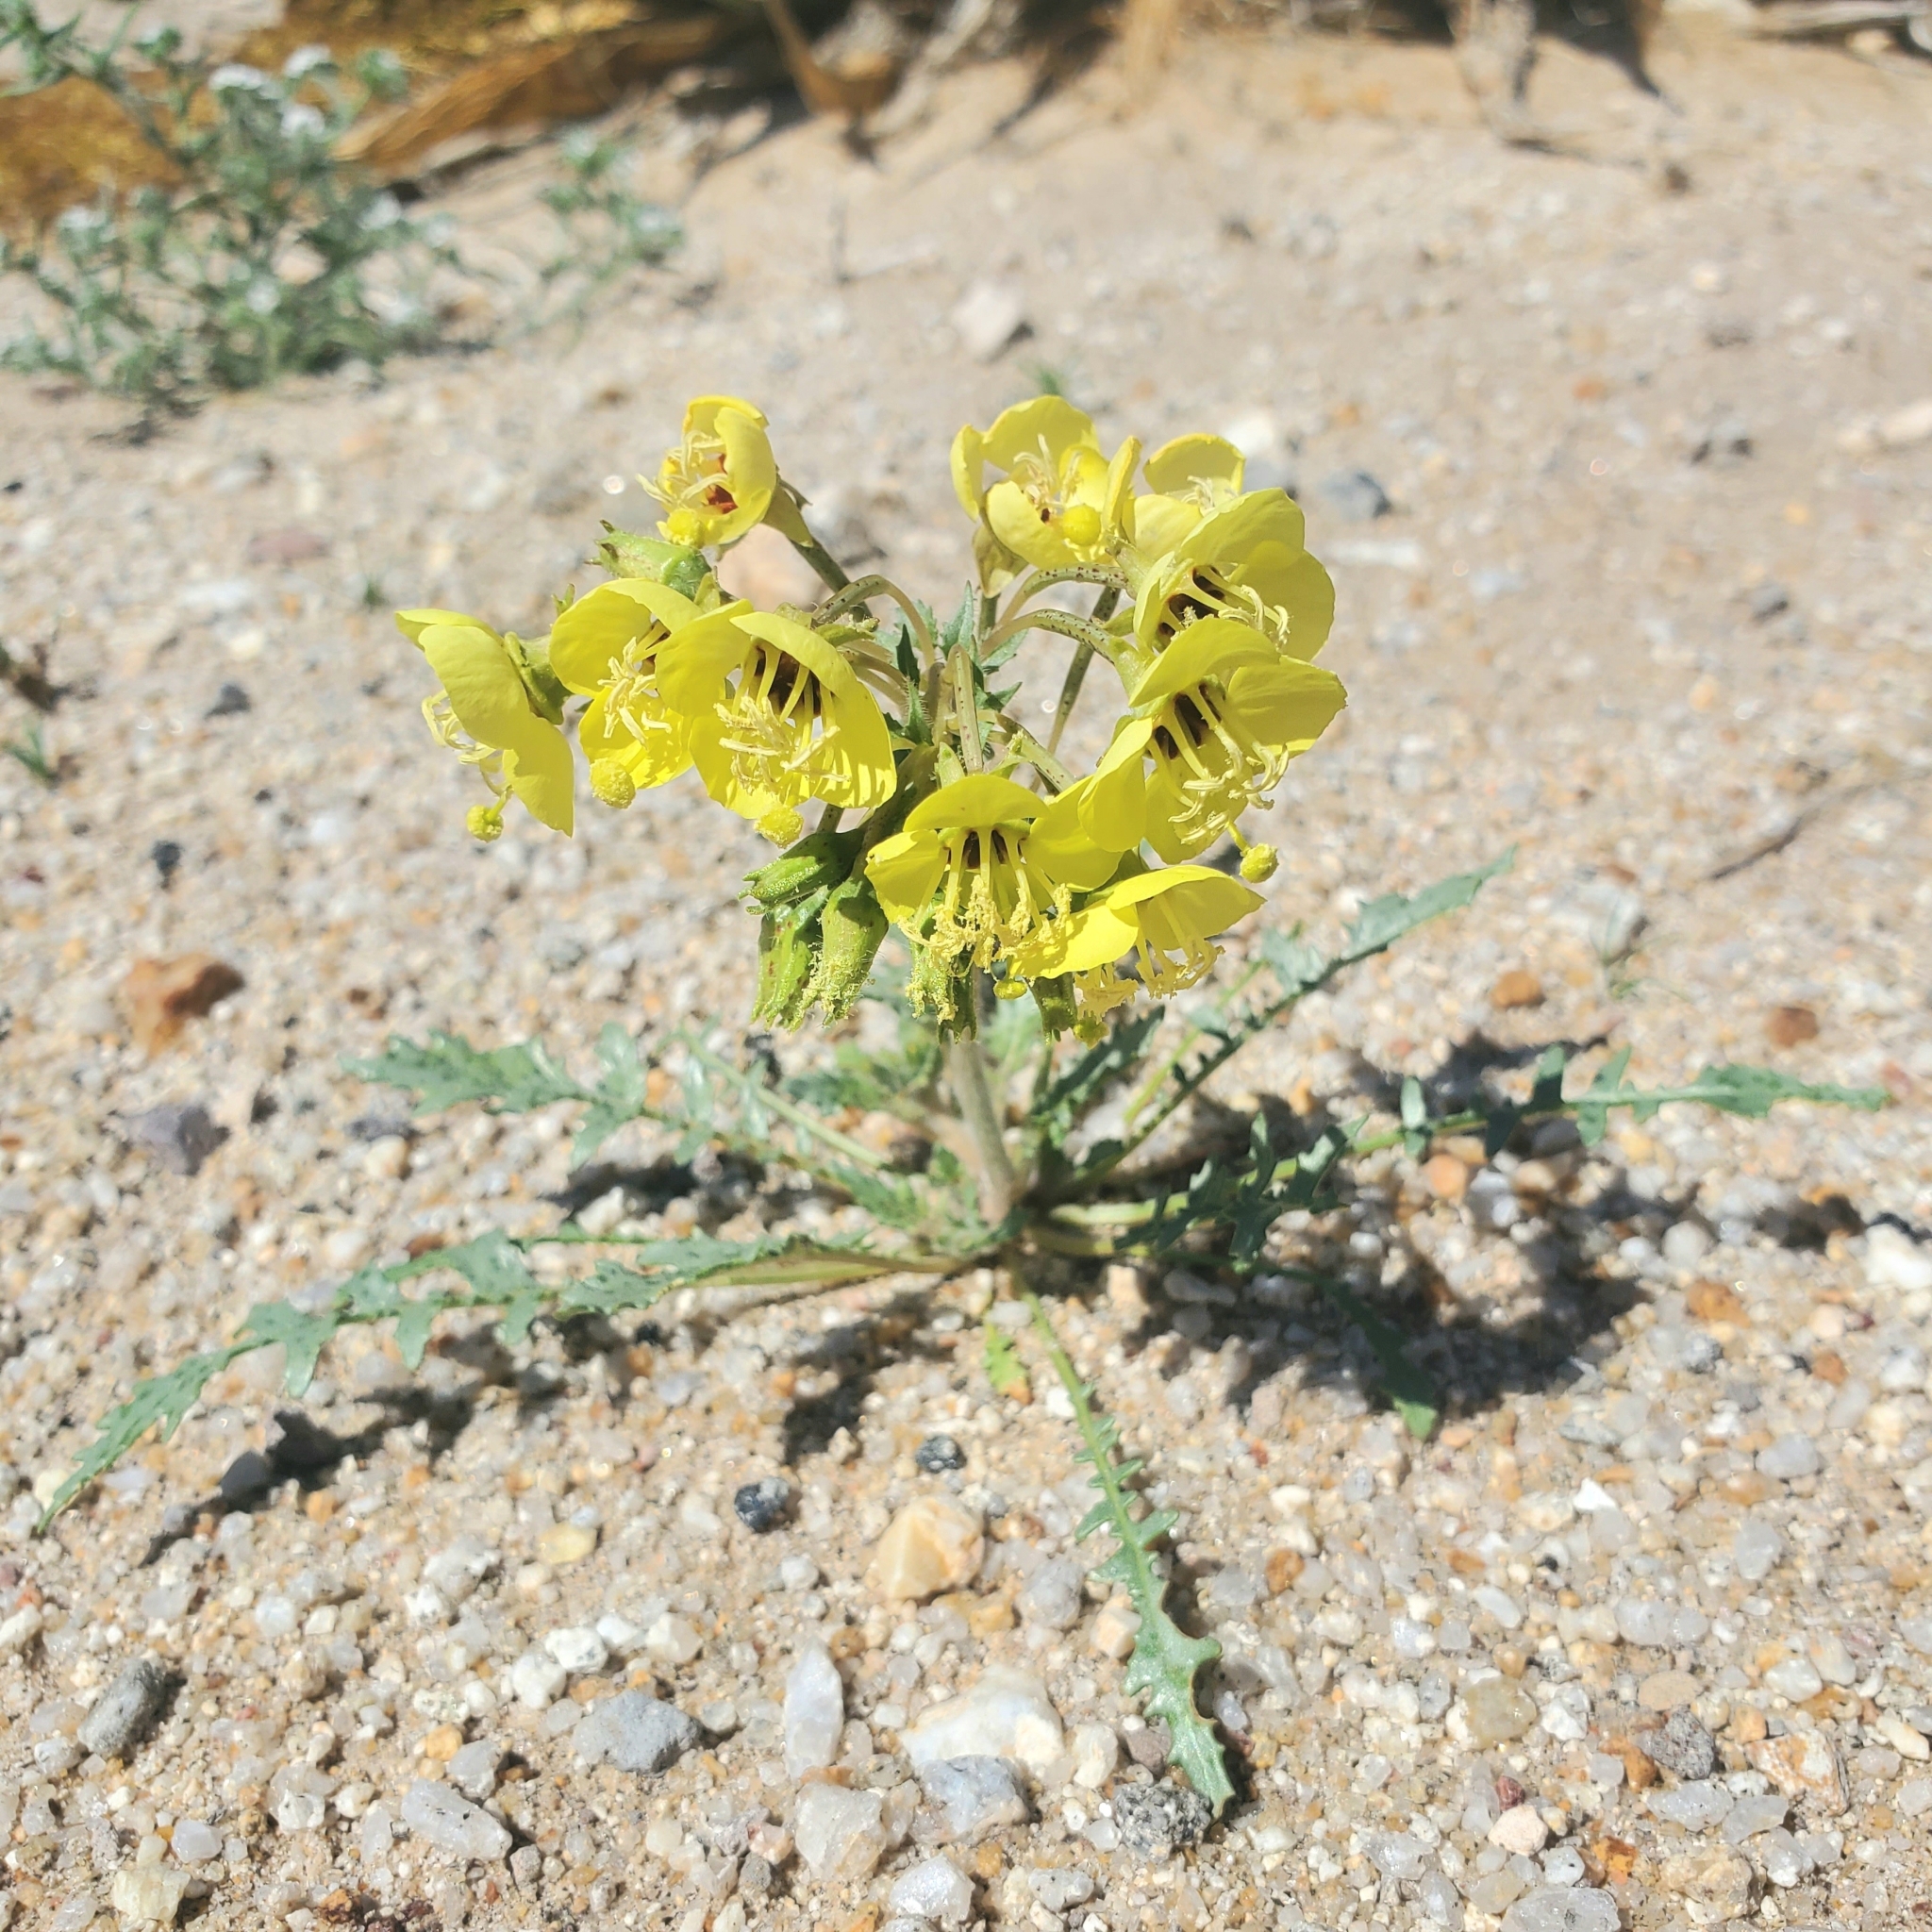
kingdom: Plantae
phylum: Tracheophyta
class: Magnoliopsida
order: Myrtales
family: Onagraceae
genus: Chylismia
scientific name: Chylismia claviformis
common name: Browneyes
